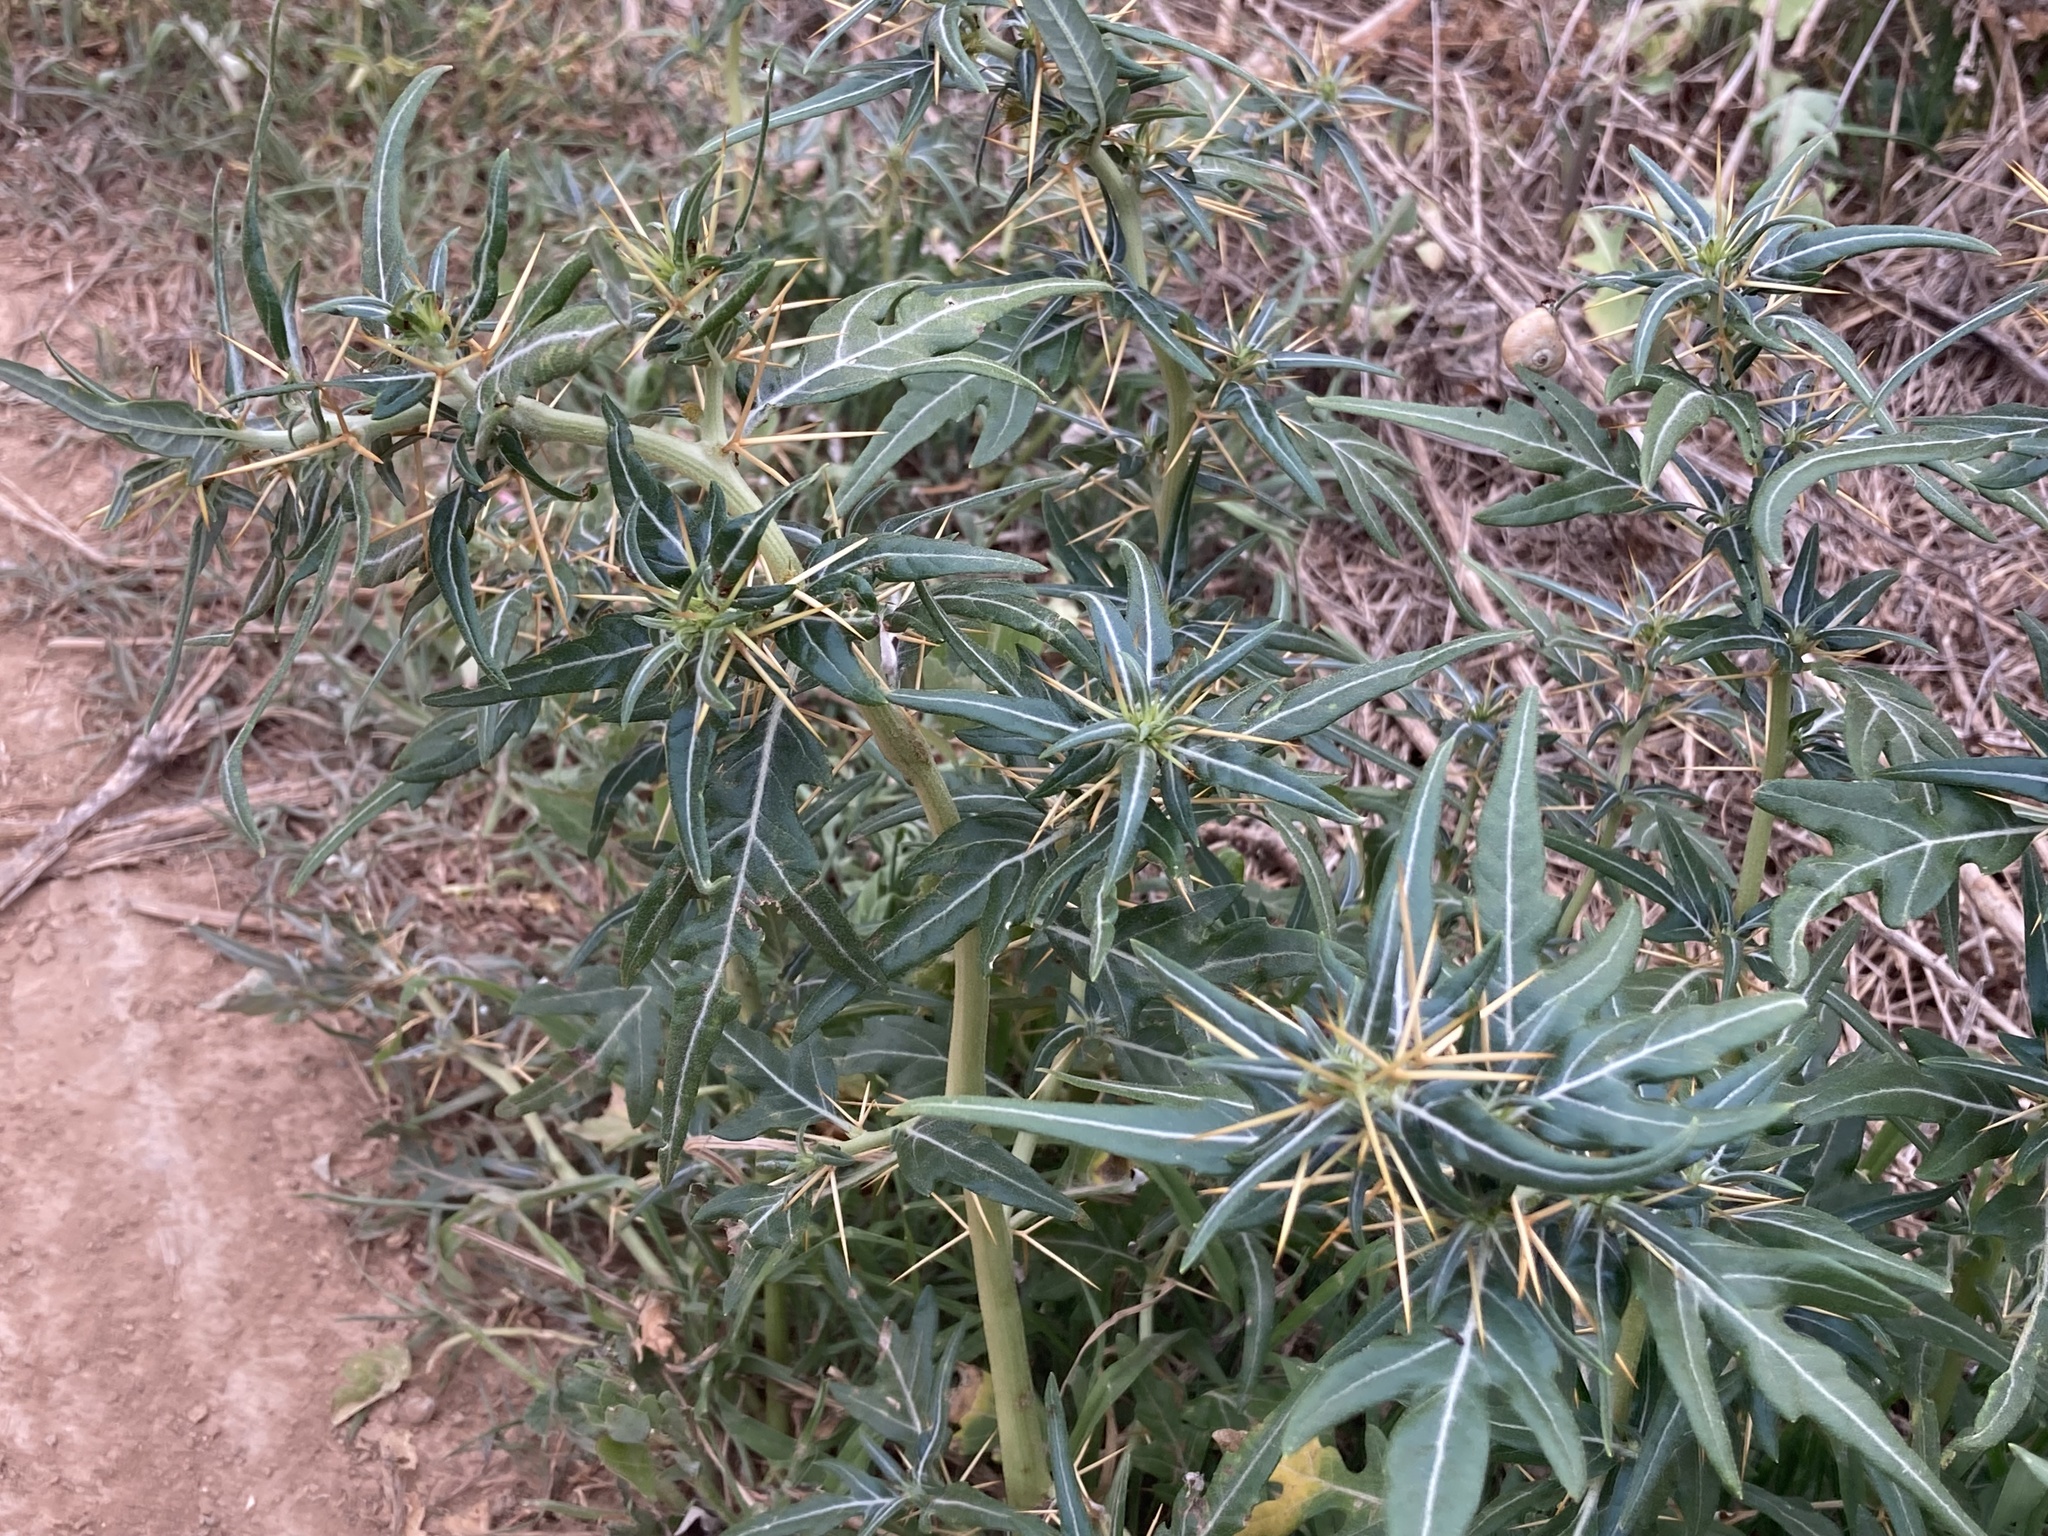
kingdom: Plantae
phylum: Tracheophyta
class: Magnoliopsida
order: Asterales
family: Asteraceae
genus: Xanthium
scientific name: Xanthium spinosum
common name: Spiny cocklebur
